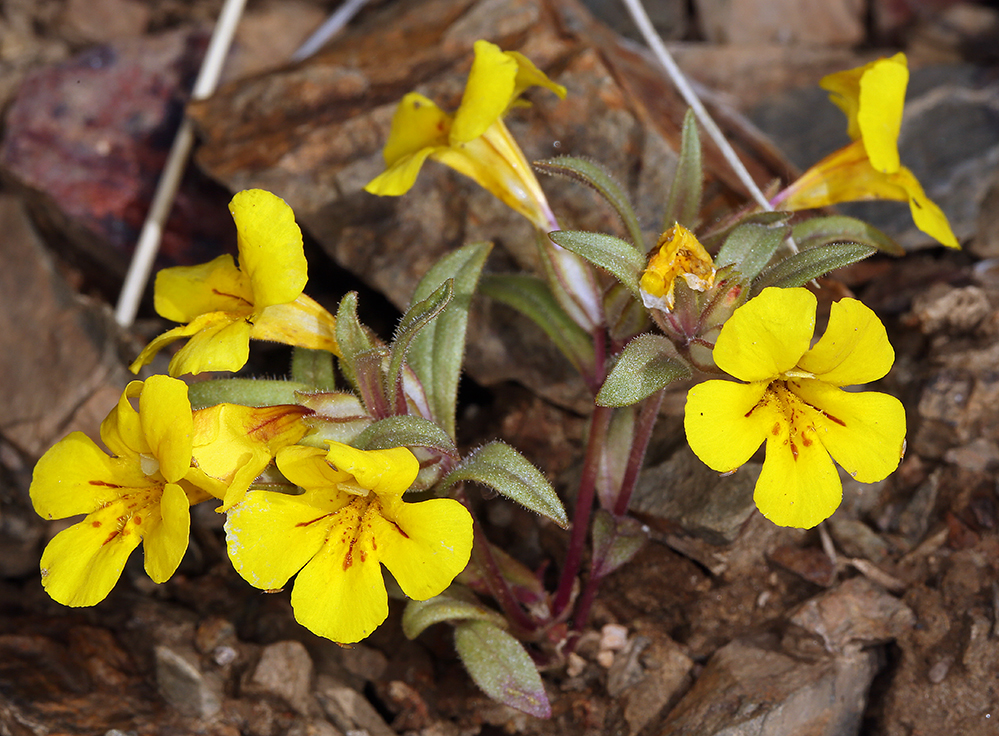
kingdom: Plantae
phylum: Tracheophyta
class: Magnoliopsida
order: Lamiales
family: Phrymaceae
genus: Diplacus
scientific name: Diplacus mephiticus
